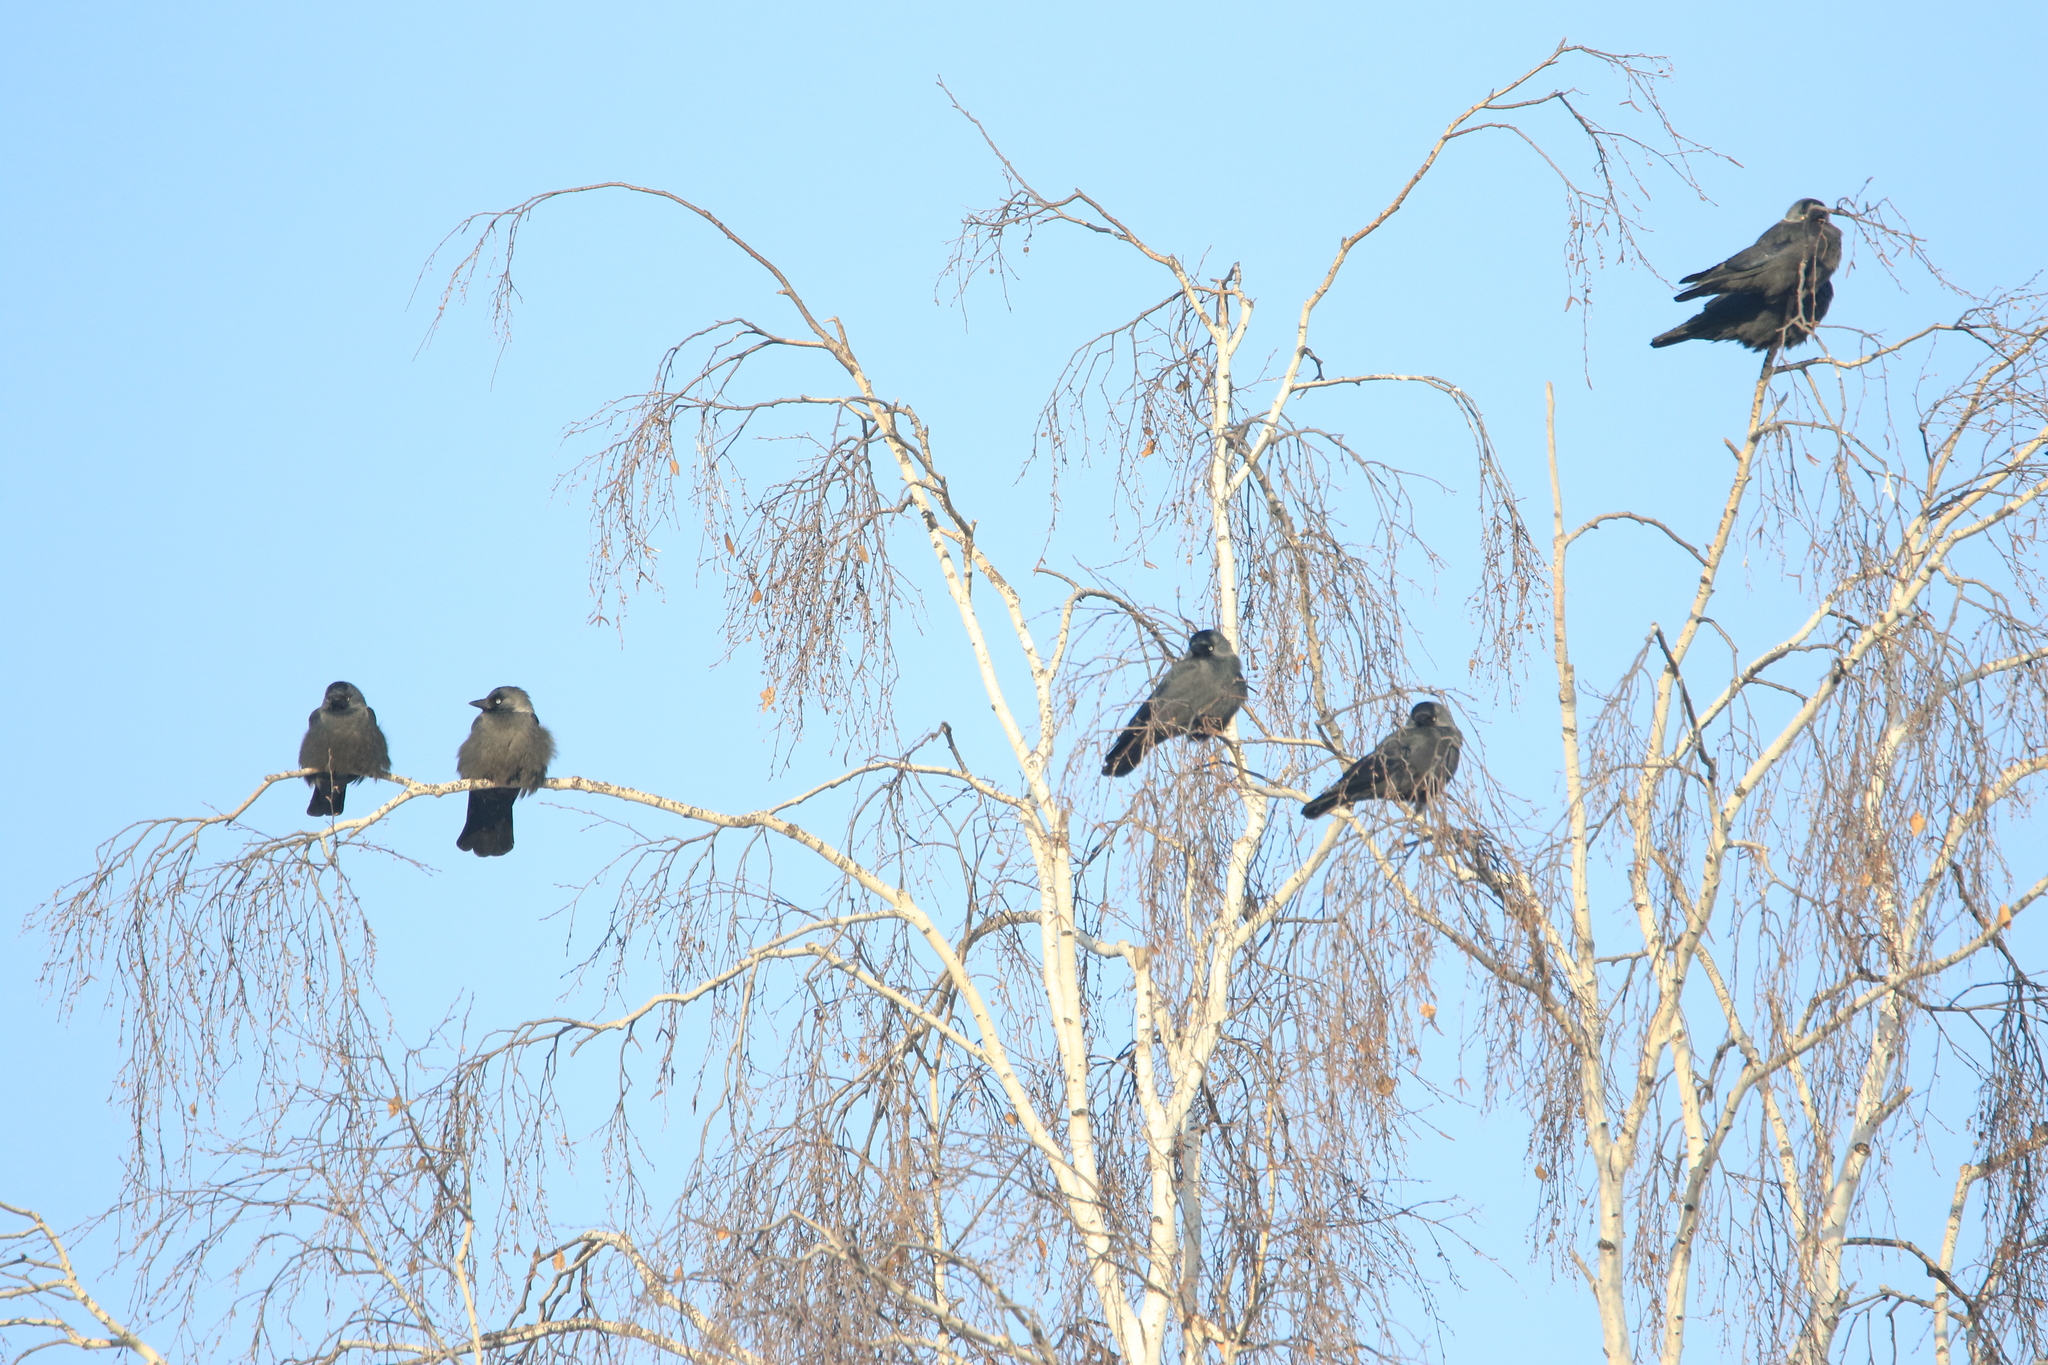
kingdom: Animalia
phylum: Chordata
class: Aves
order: Passeriformes
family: Corvidae
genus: Coloeus
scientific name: Coloeus monedula
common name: Western jackdaw
